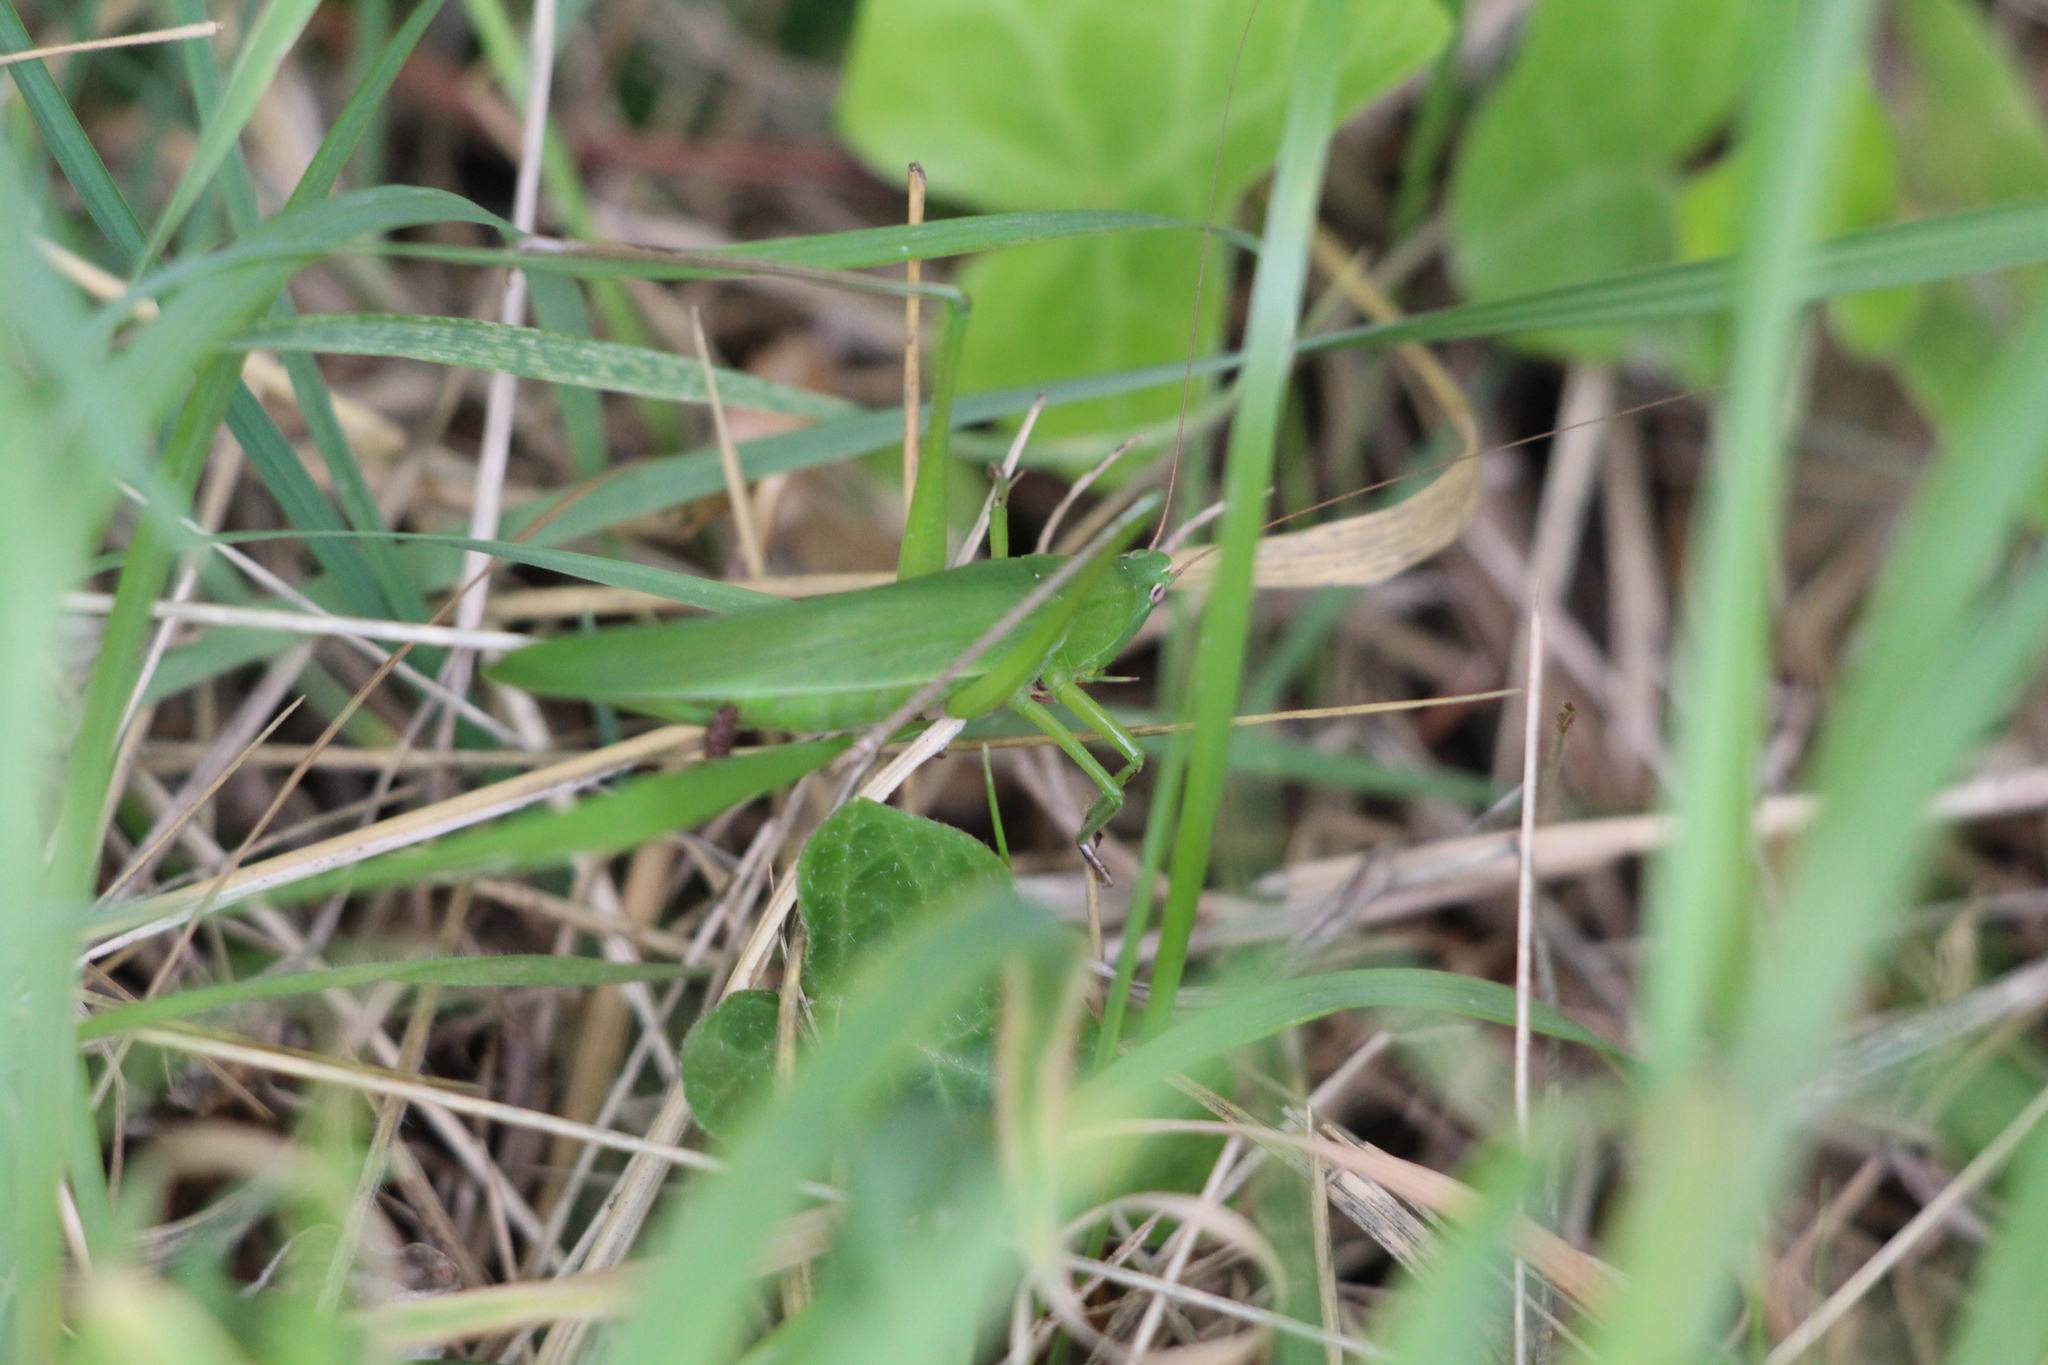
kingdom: Animalia
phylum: Arthropoda
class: Insecta
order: Orthoptera
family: Tettigoniidae
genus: Ruspolia
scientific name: Ruspolia nitidula
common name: Large conehead
